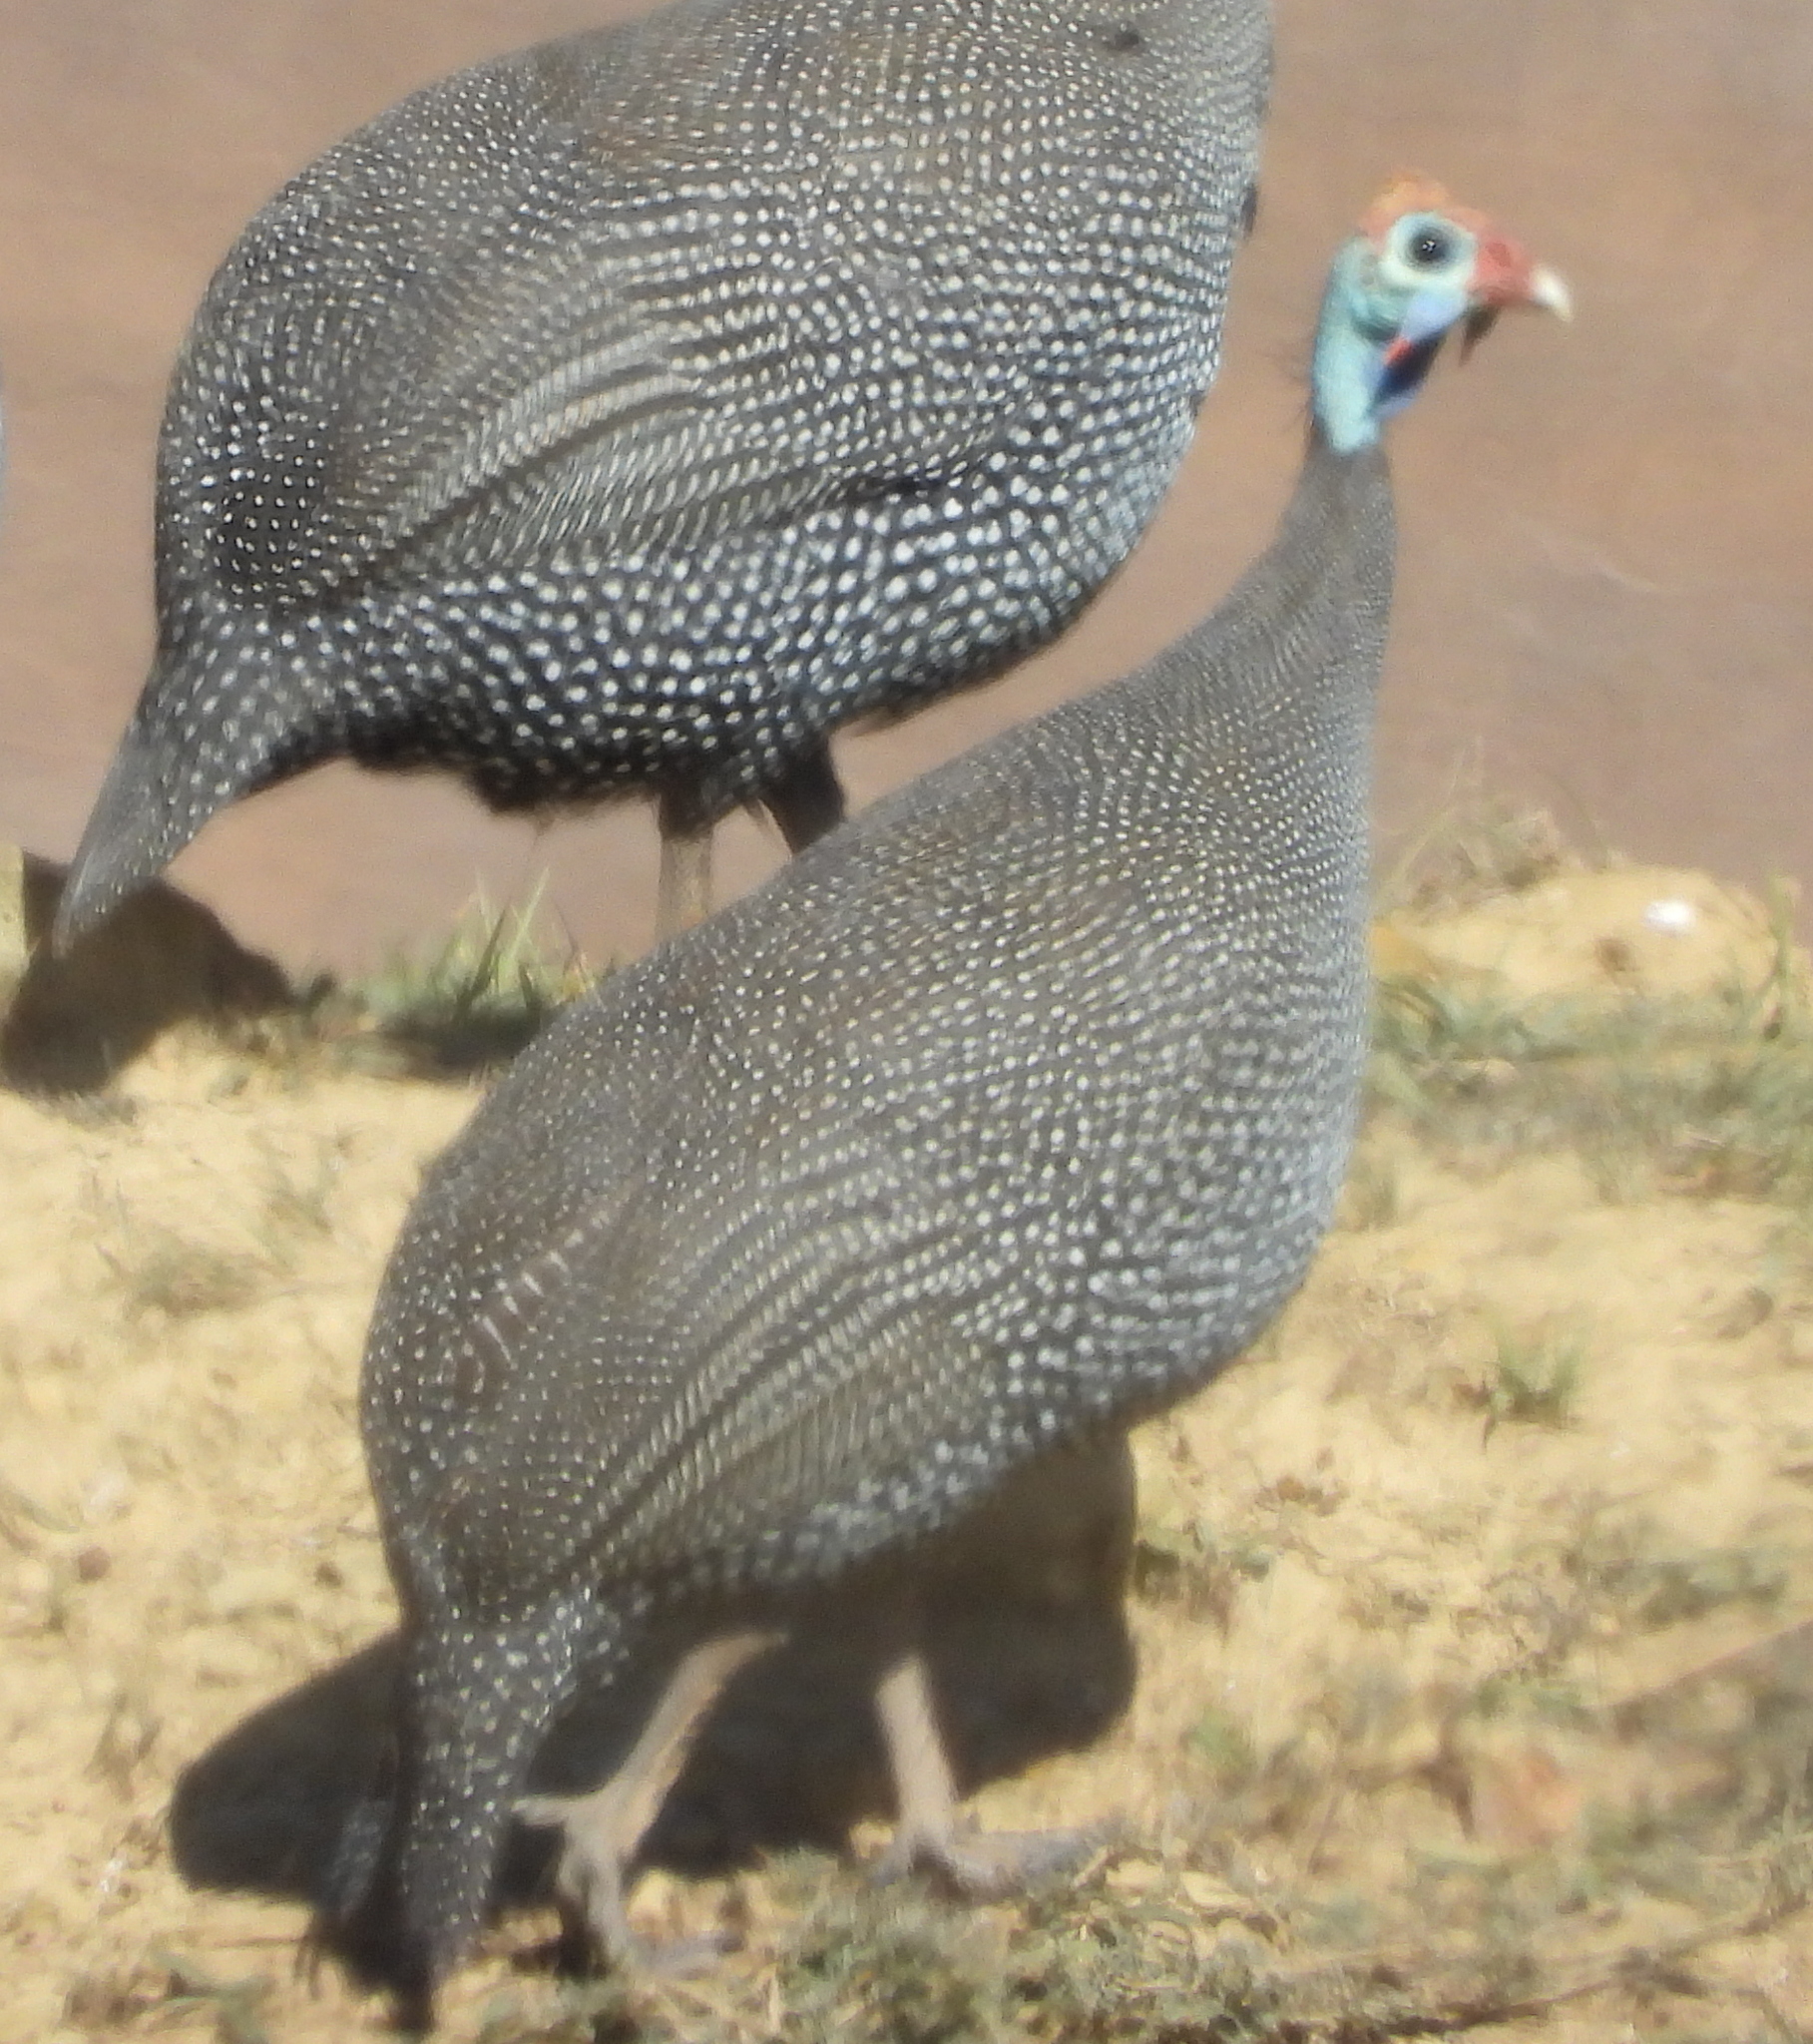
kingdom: Animalia
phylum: Chordata
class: Aves
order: Galliformes
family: Numididae
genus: Numida
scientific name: Numida meleagris
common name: Helmeted guineafowl
